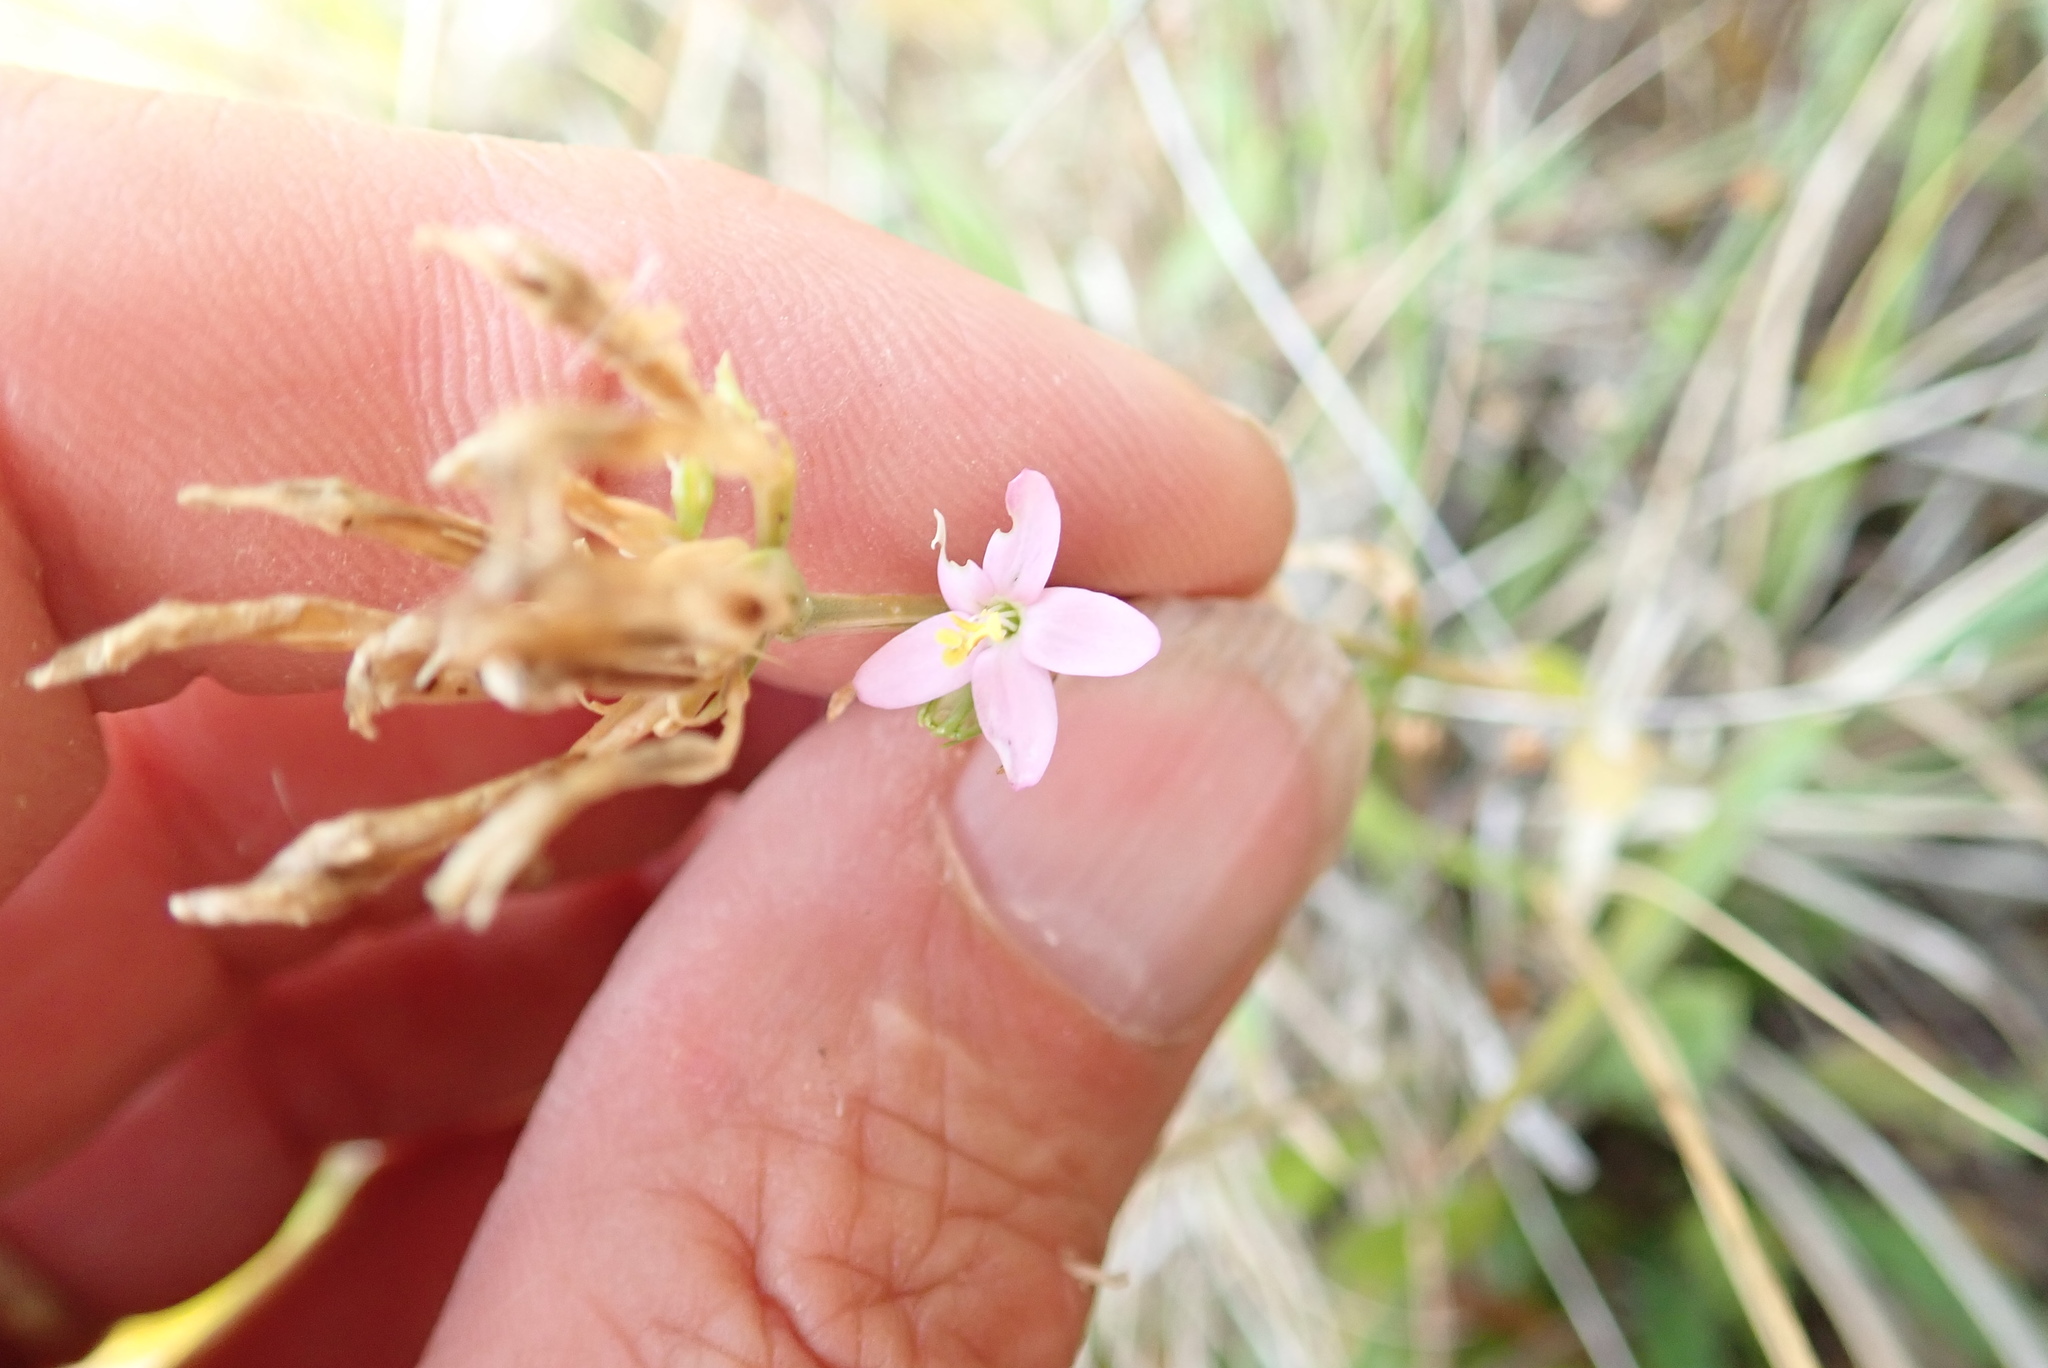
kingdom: Plantae
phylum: Tracheophyta
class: Magnoliopsida
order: Gentianales
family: Gentianaceae
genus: Centaurium
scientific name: Centaurium erythraea
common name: Common centaury
